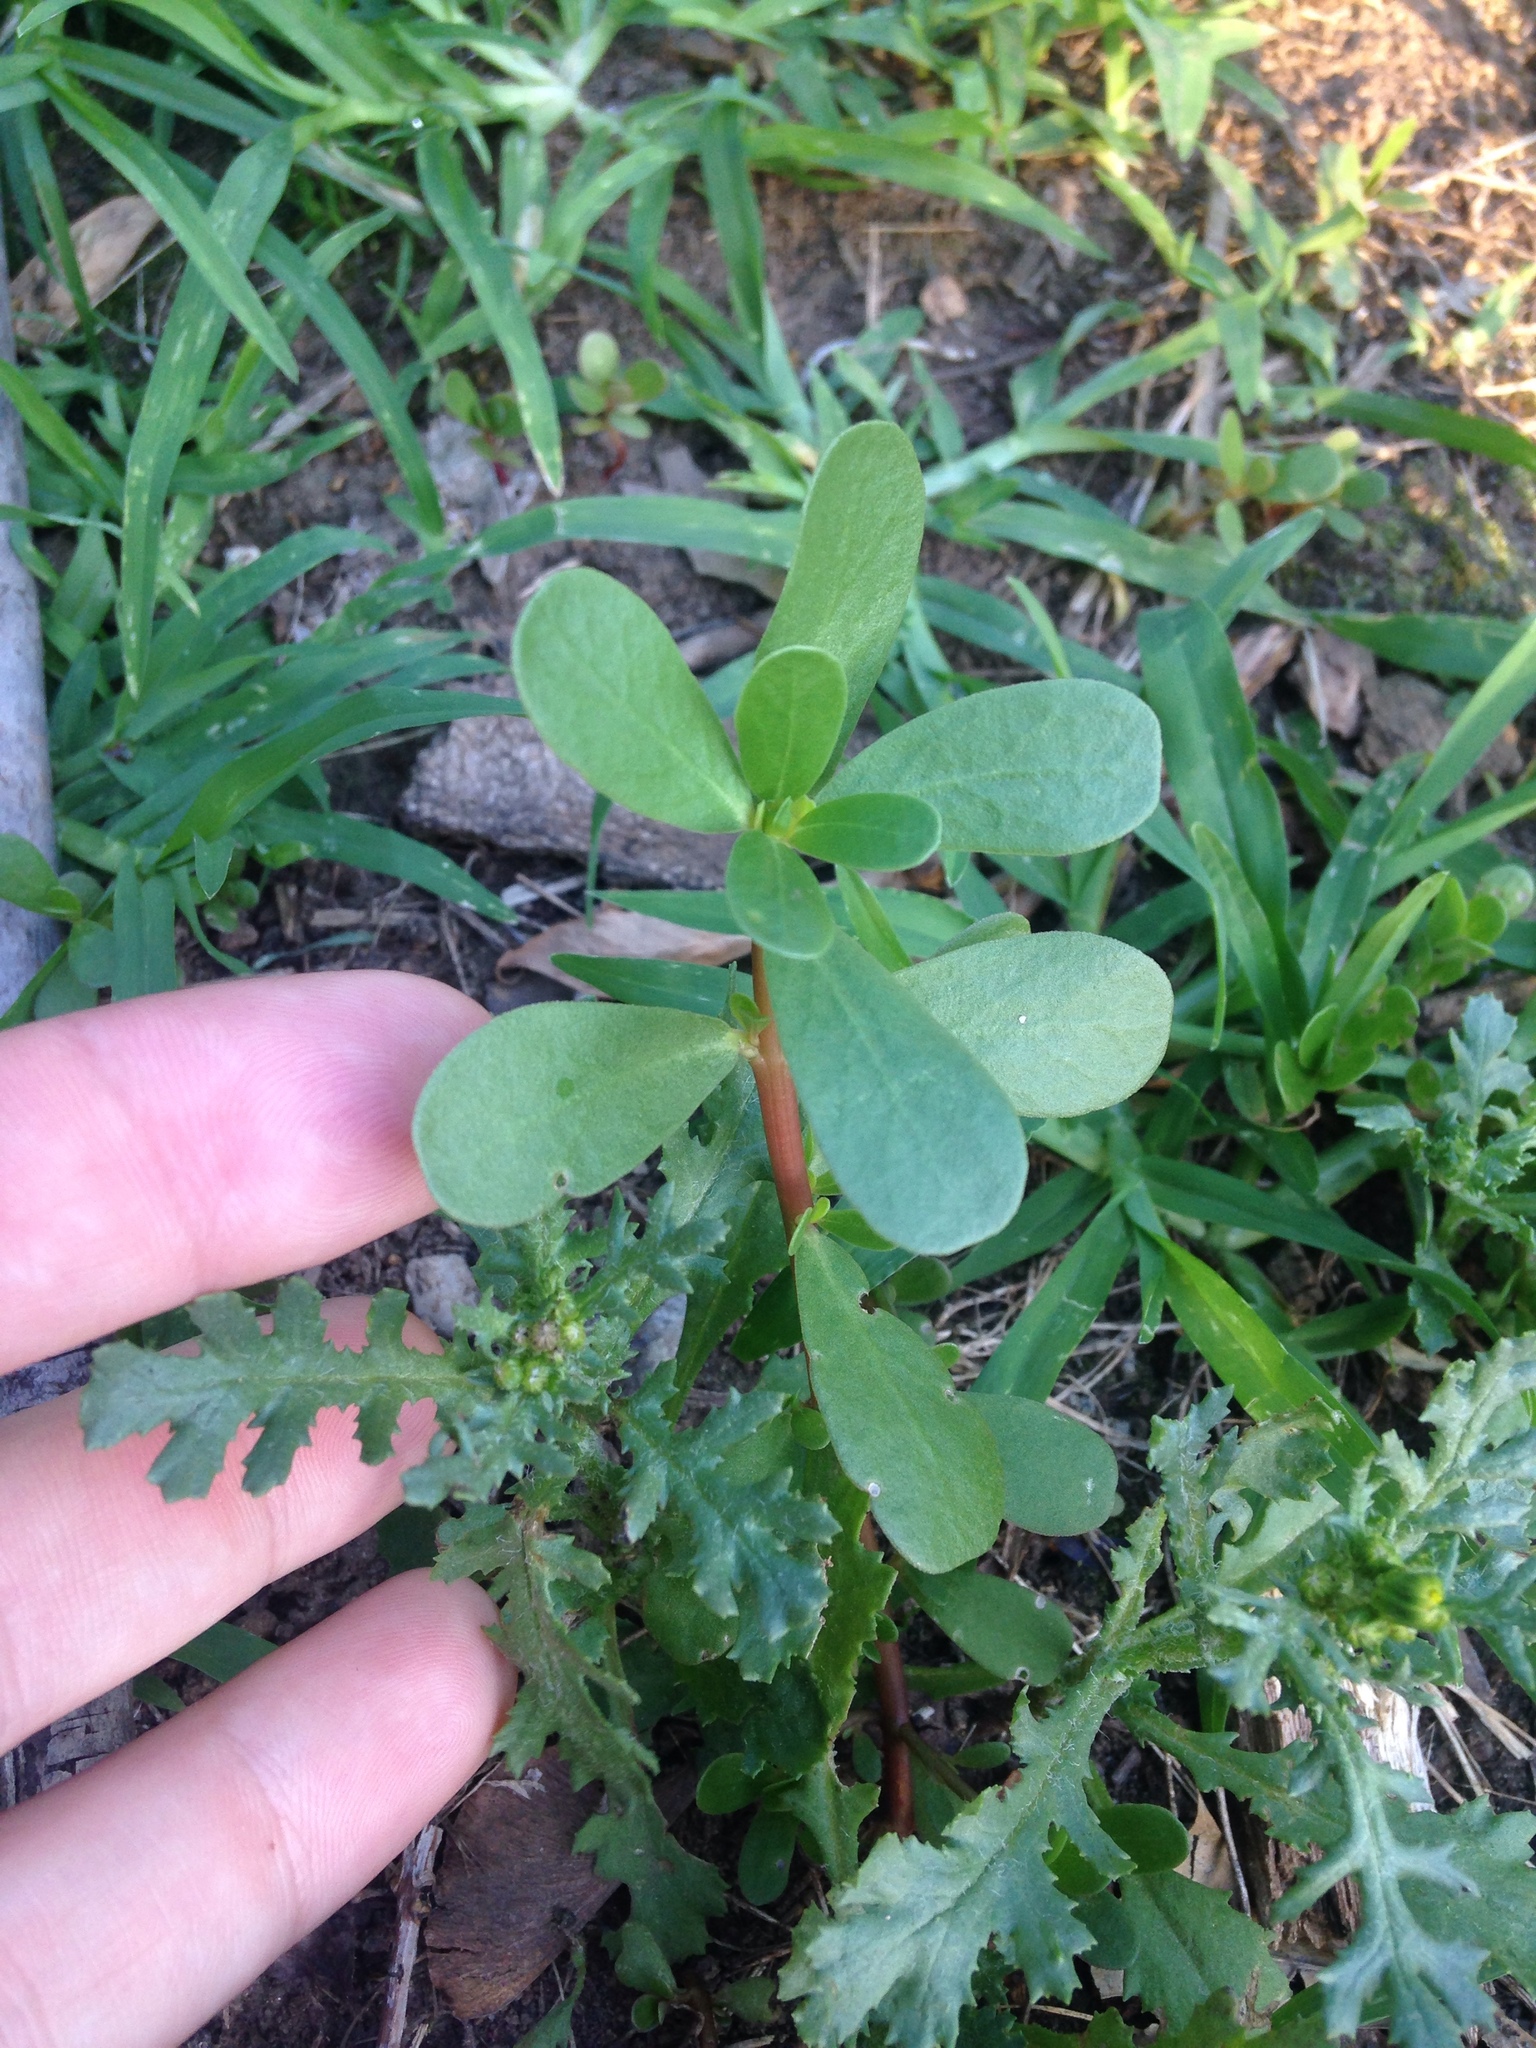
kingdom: Plantae
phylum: Tracheophyta
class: Magnoliopsida
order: Caryophyllales
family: Portulacaceae
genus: Portulaca
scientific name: Portulaca oleracea
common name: Common purslane
